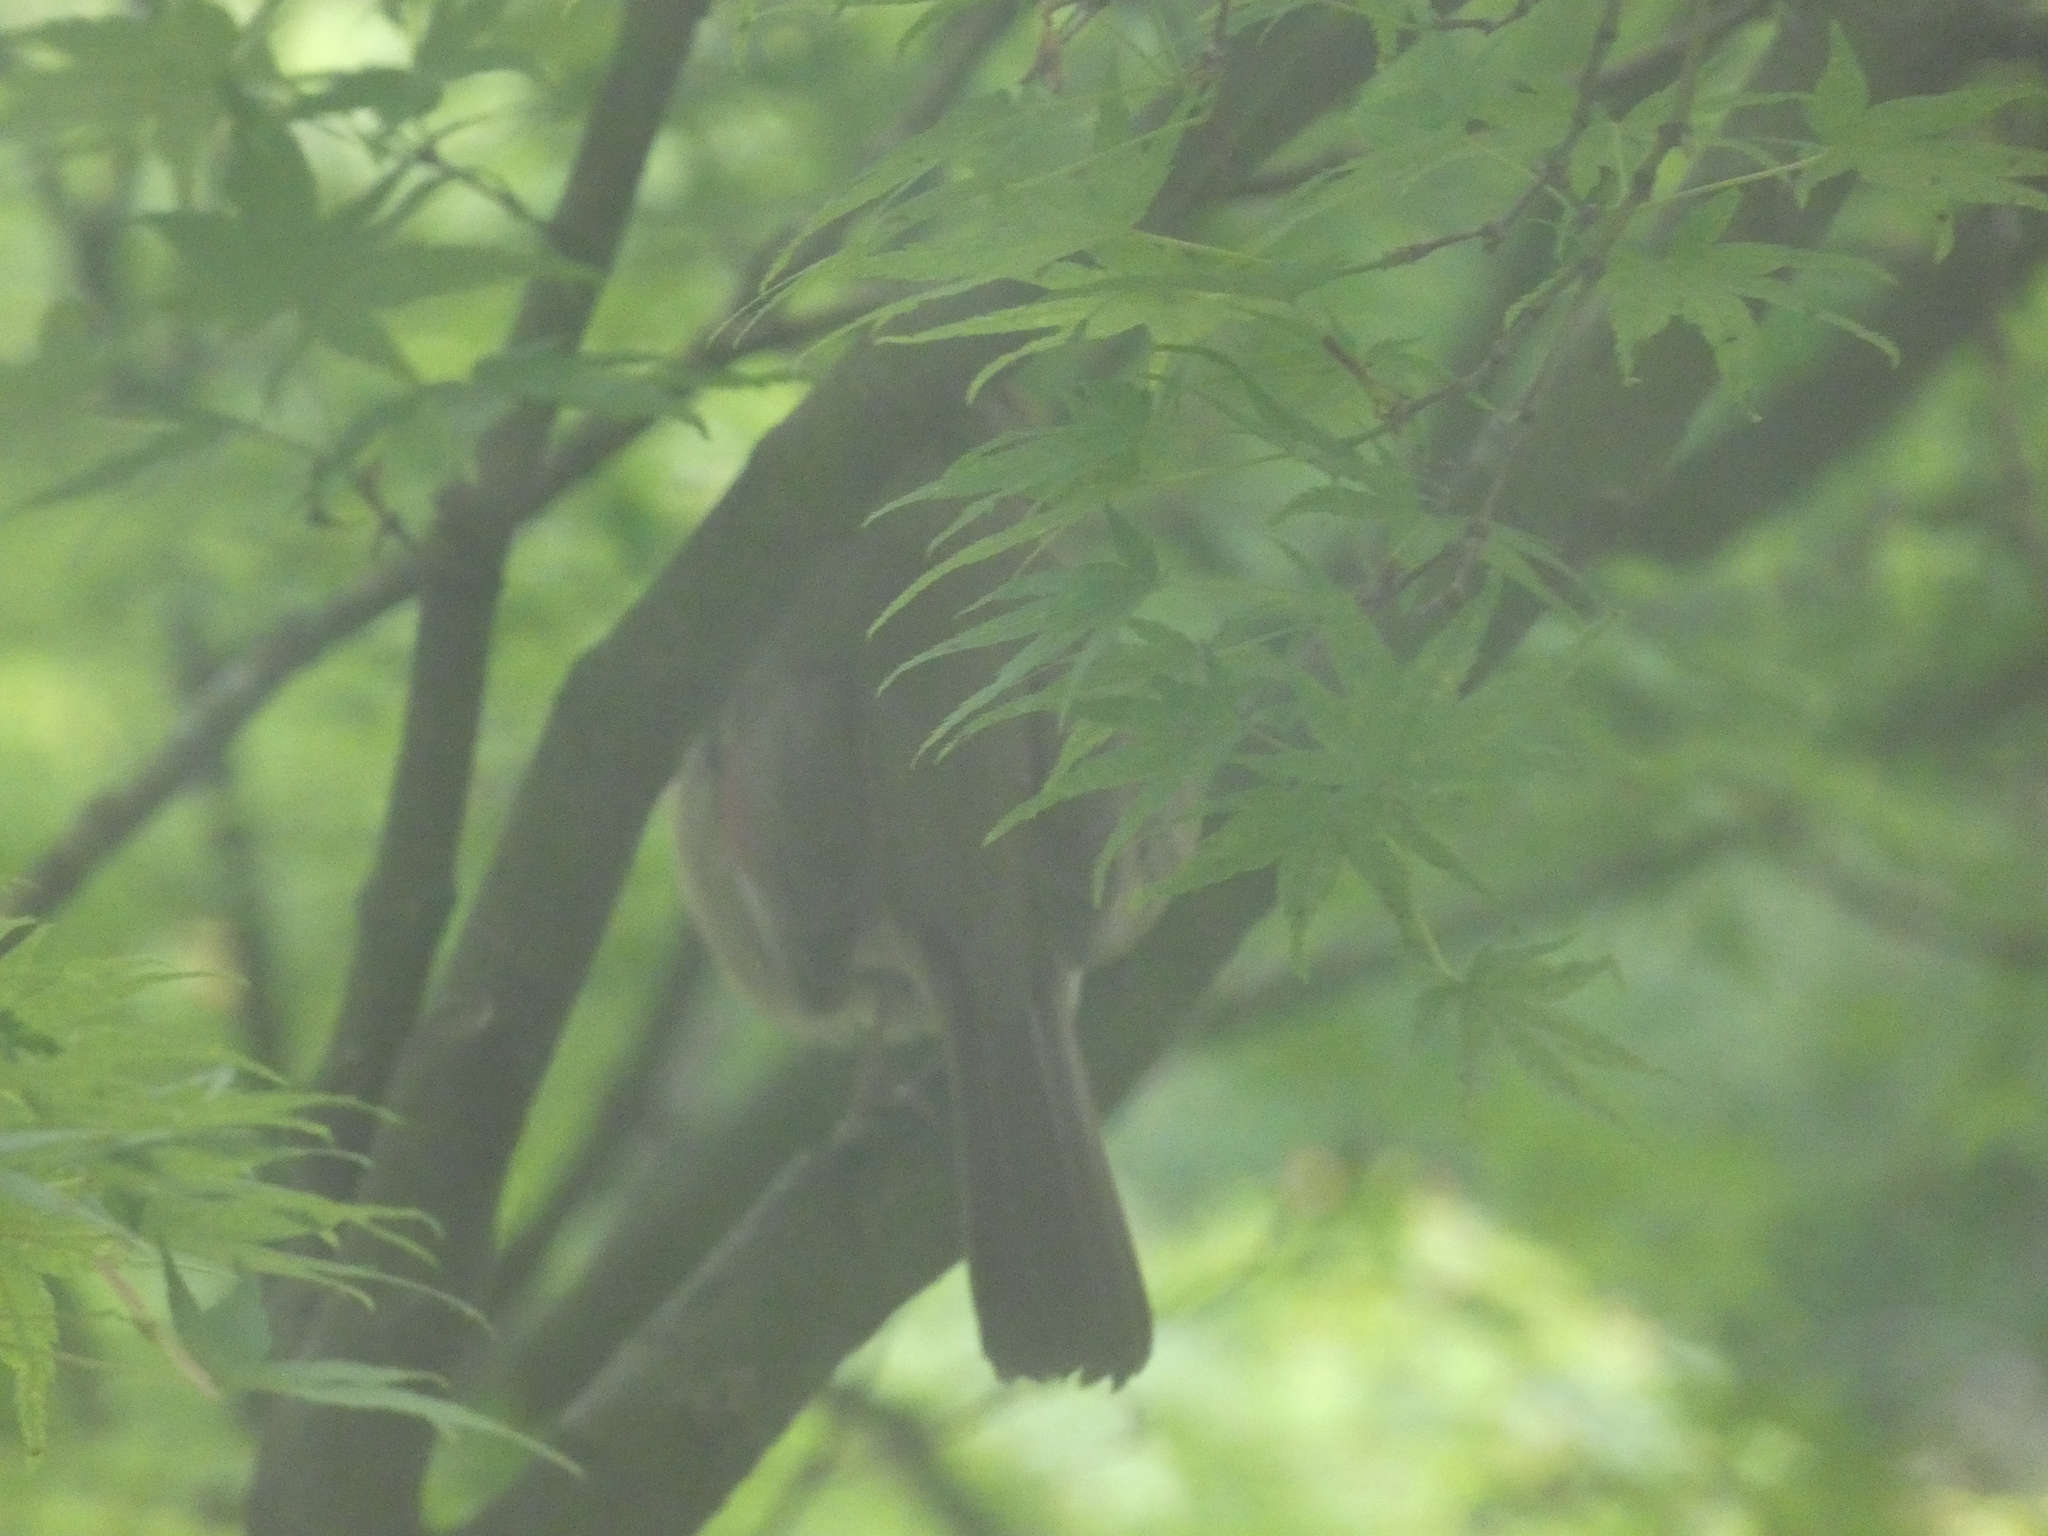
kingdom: Animalia
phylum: Chordata
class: Aves
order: Passeriformes
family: Cardinalidae
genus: Cardinalis
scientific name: Cardinalis cardinalis
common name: Northern cardinal
